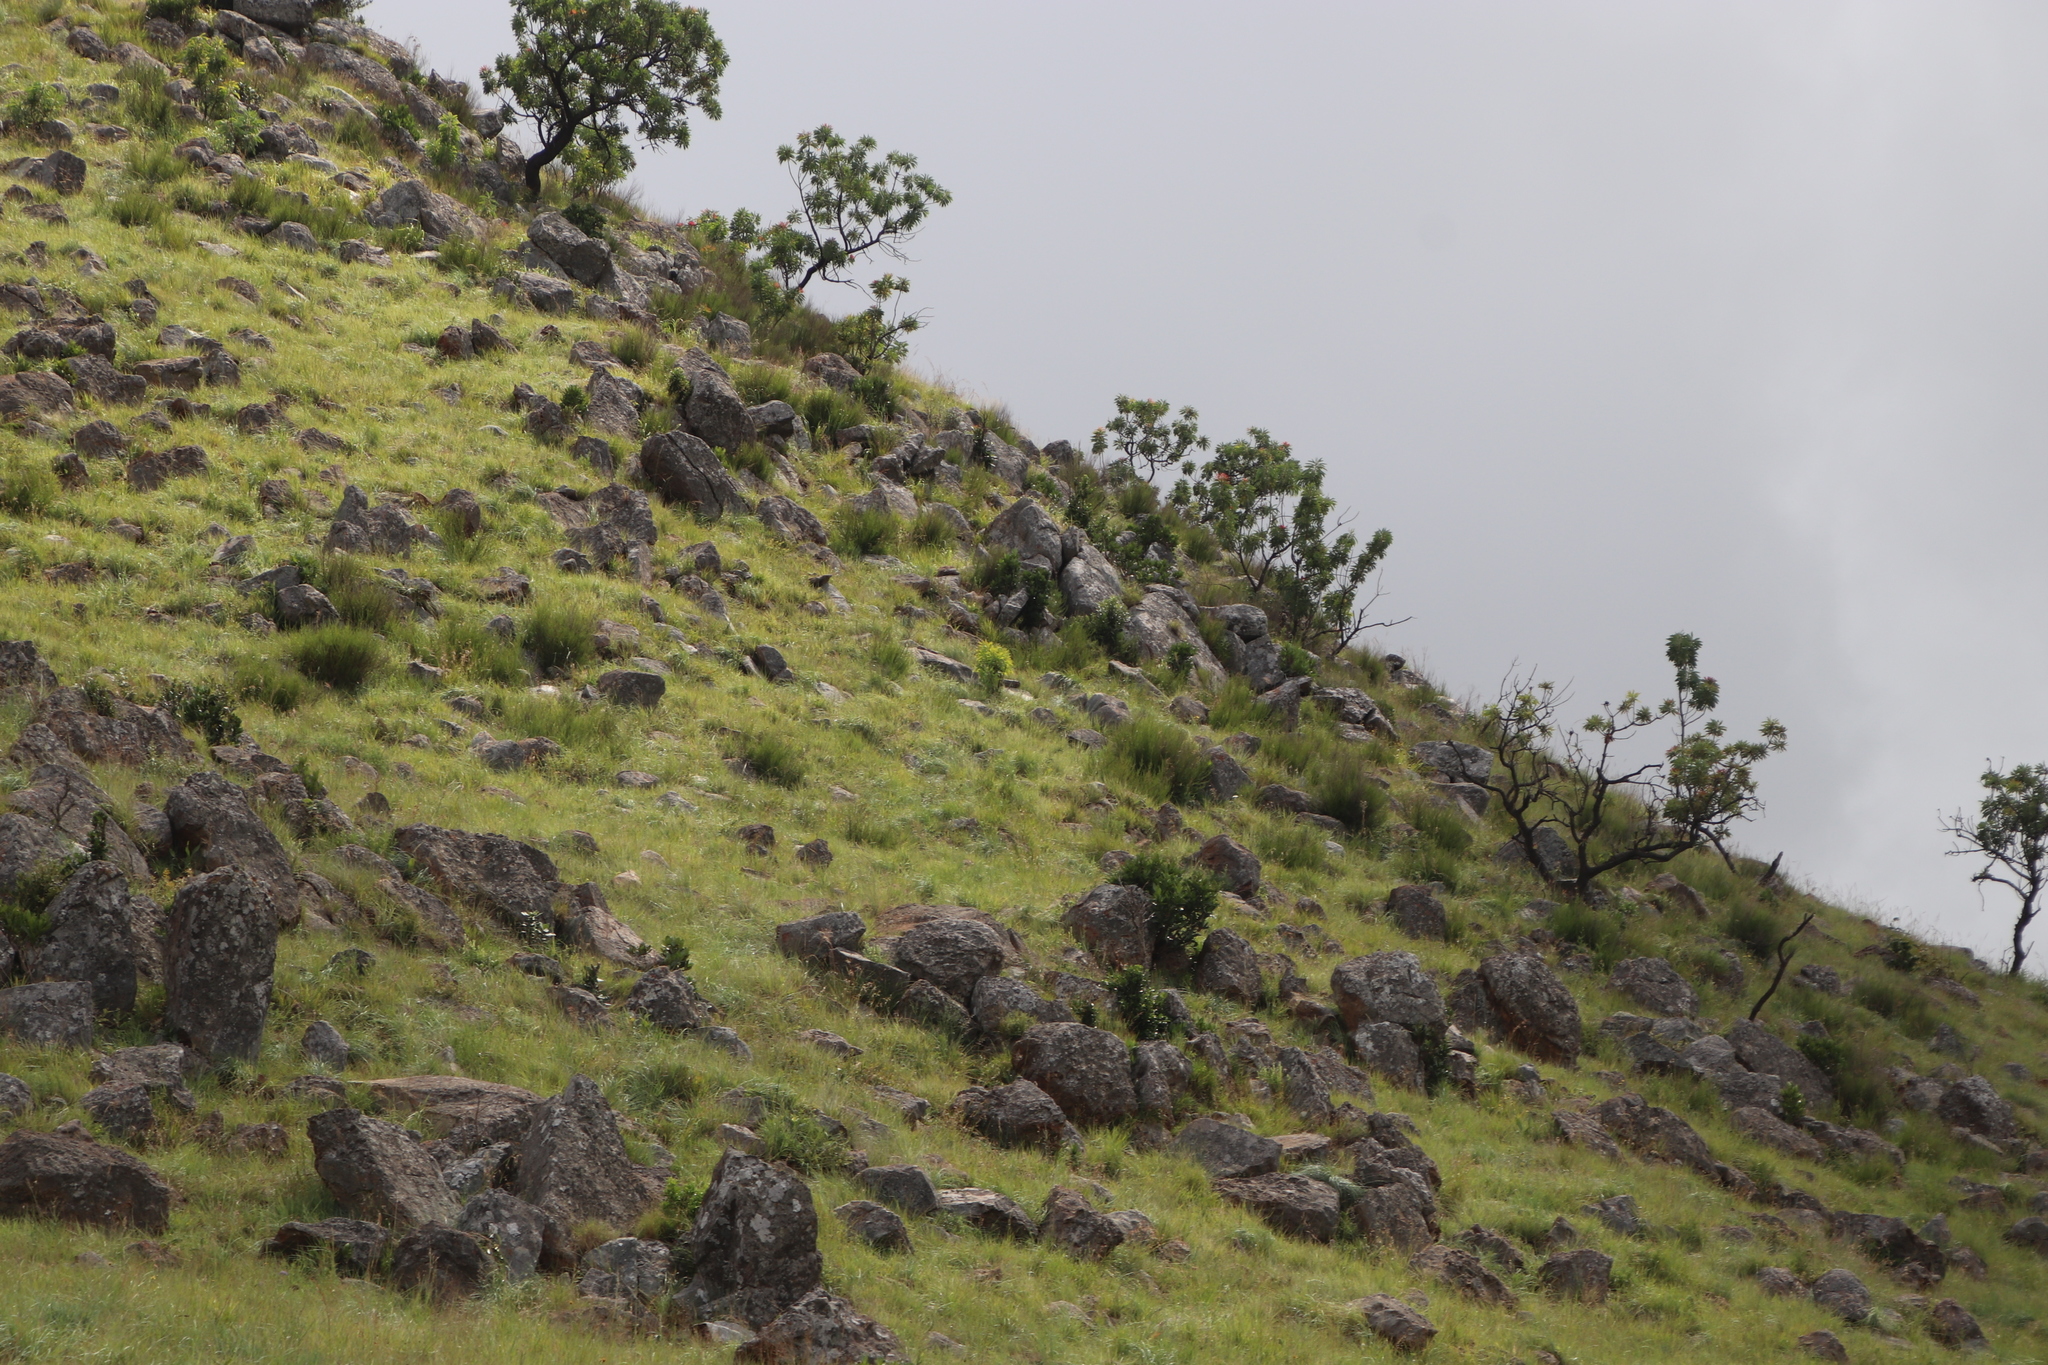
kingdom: Plantae
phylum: Tracheophyta
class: Magnoliopsida
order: Proteales
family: Proteaceae
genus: Protea
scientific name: Protea caffra
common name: Common sugarbush
